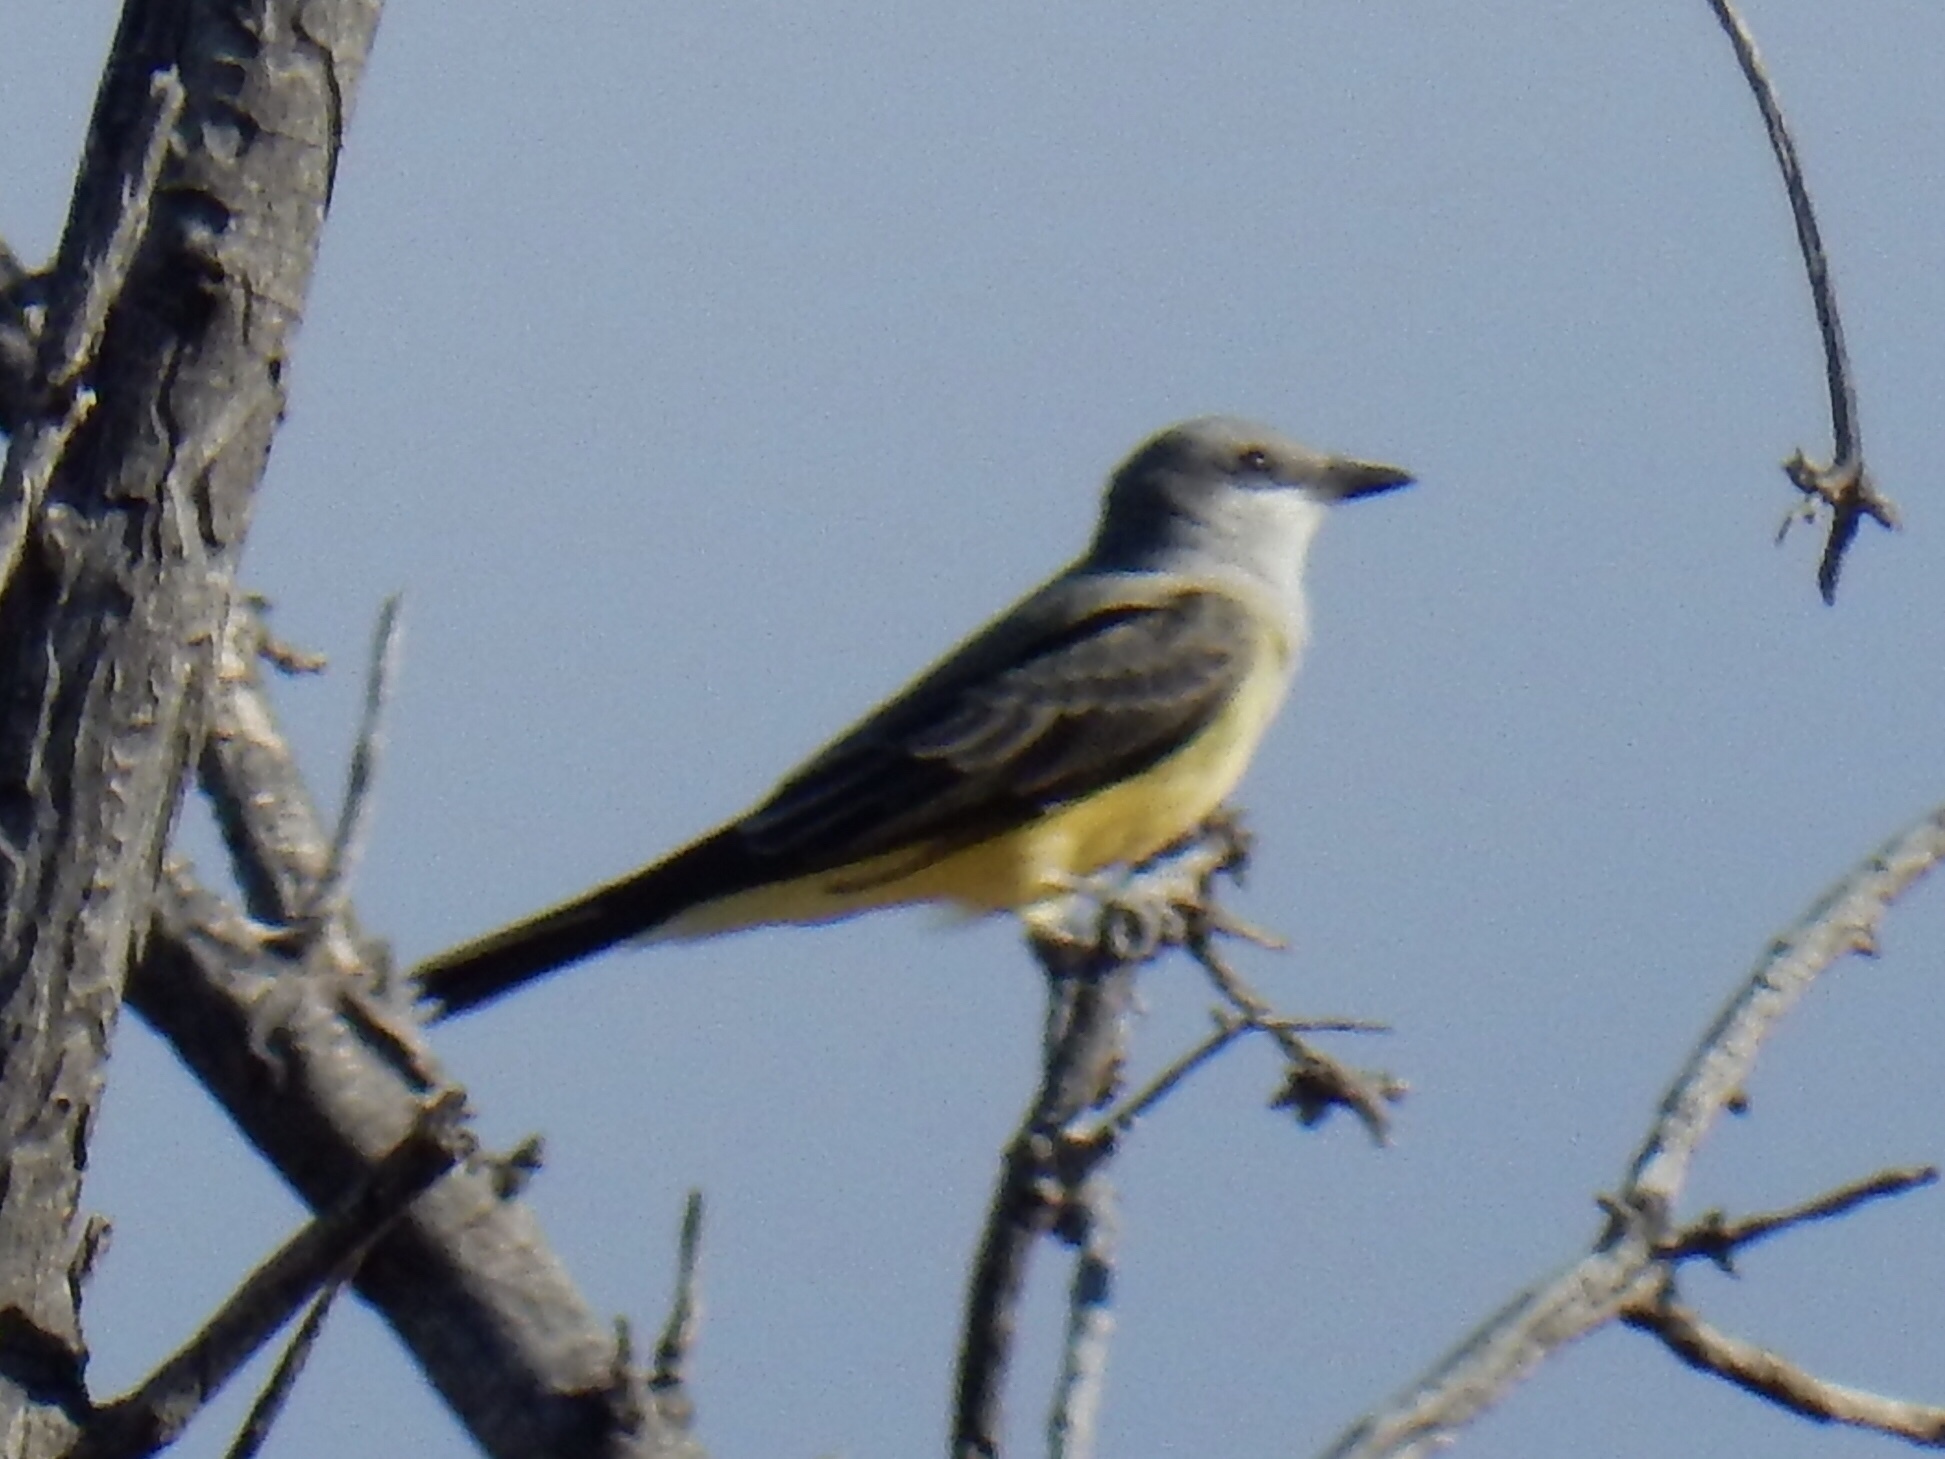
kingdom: Animalia
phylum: Chordata
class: Aves
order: Passeriformes
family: Tyrannidae
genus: Tyrannus
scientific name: Tyrannus verticalis
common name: Western kingbird
